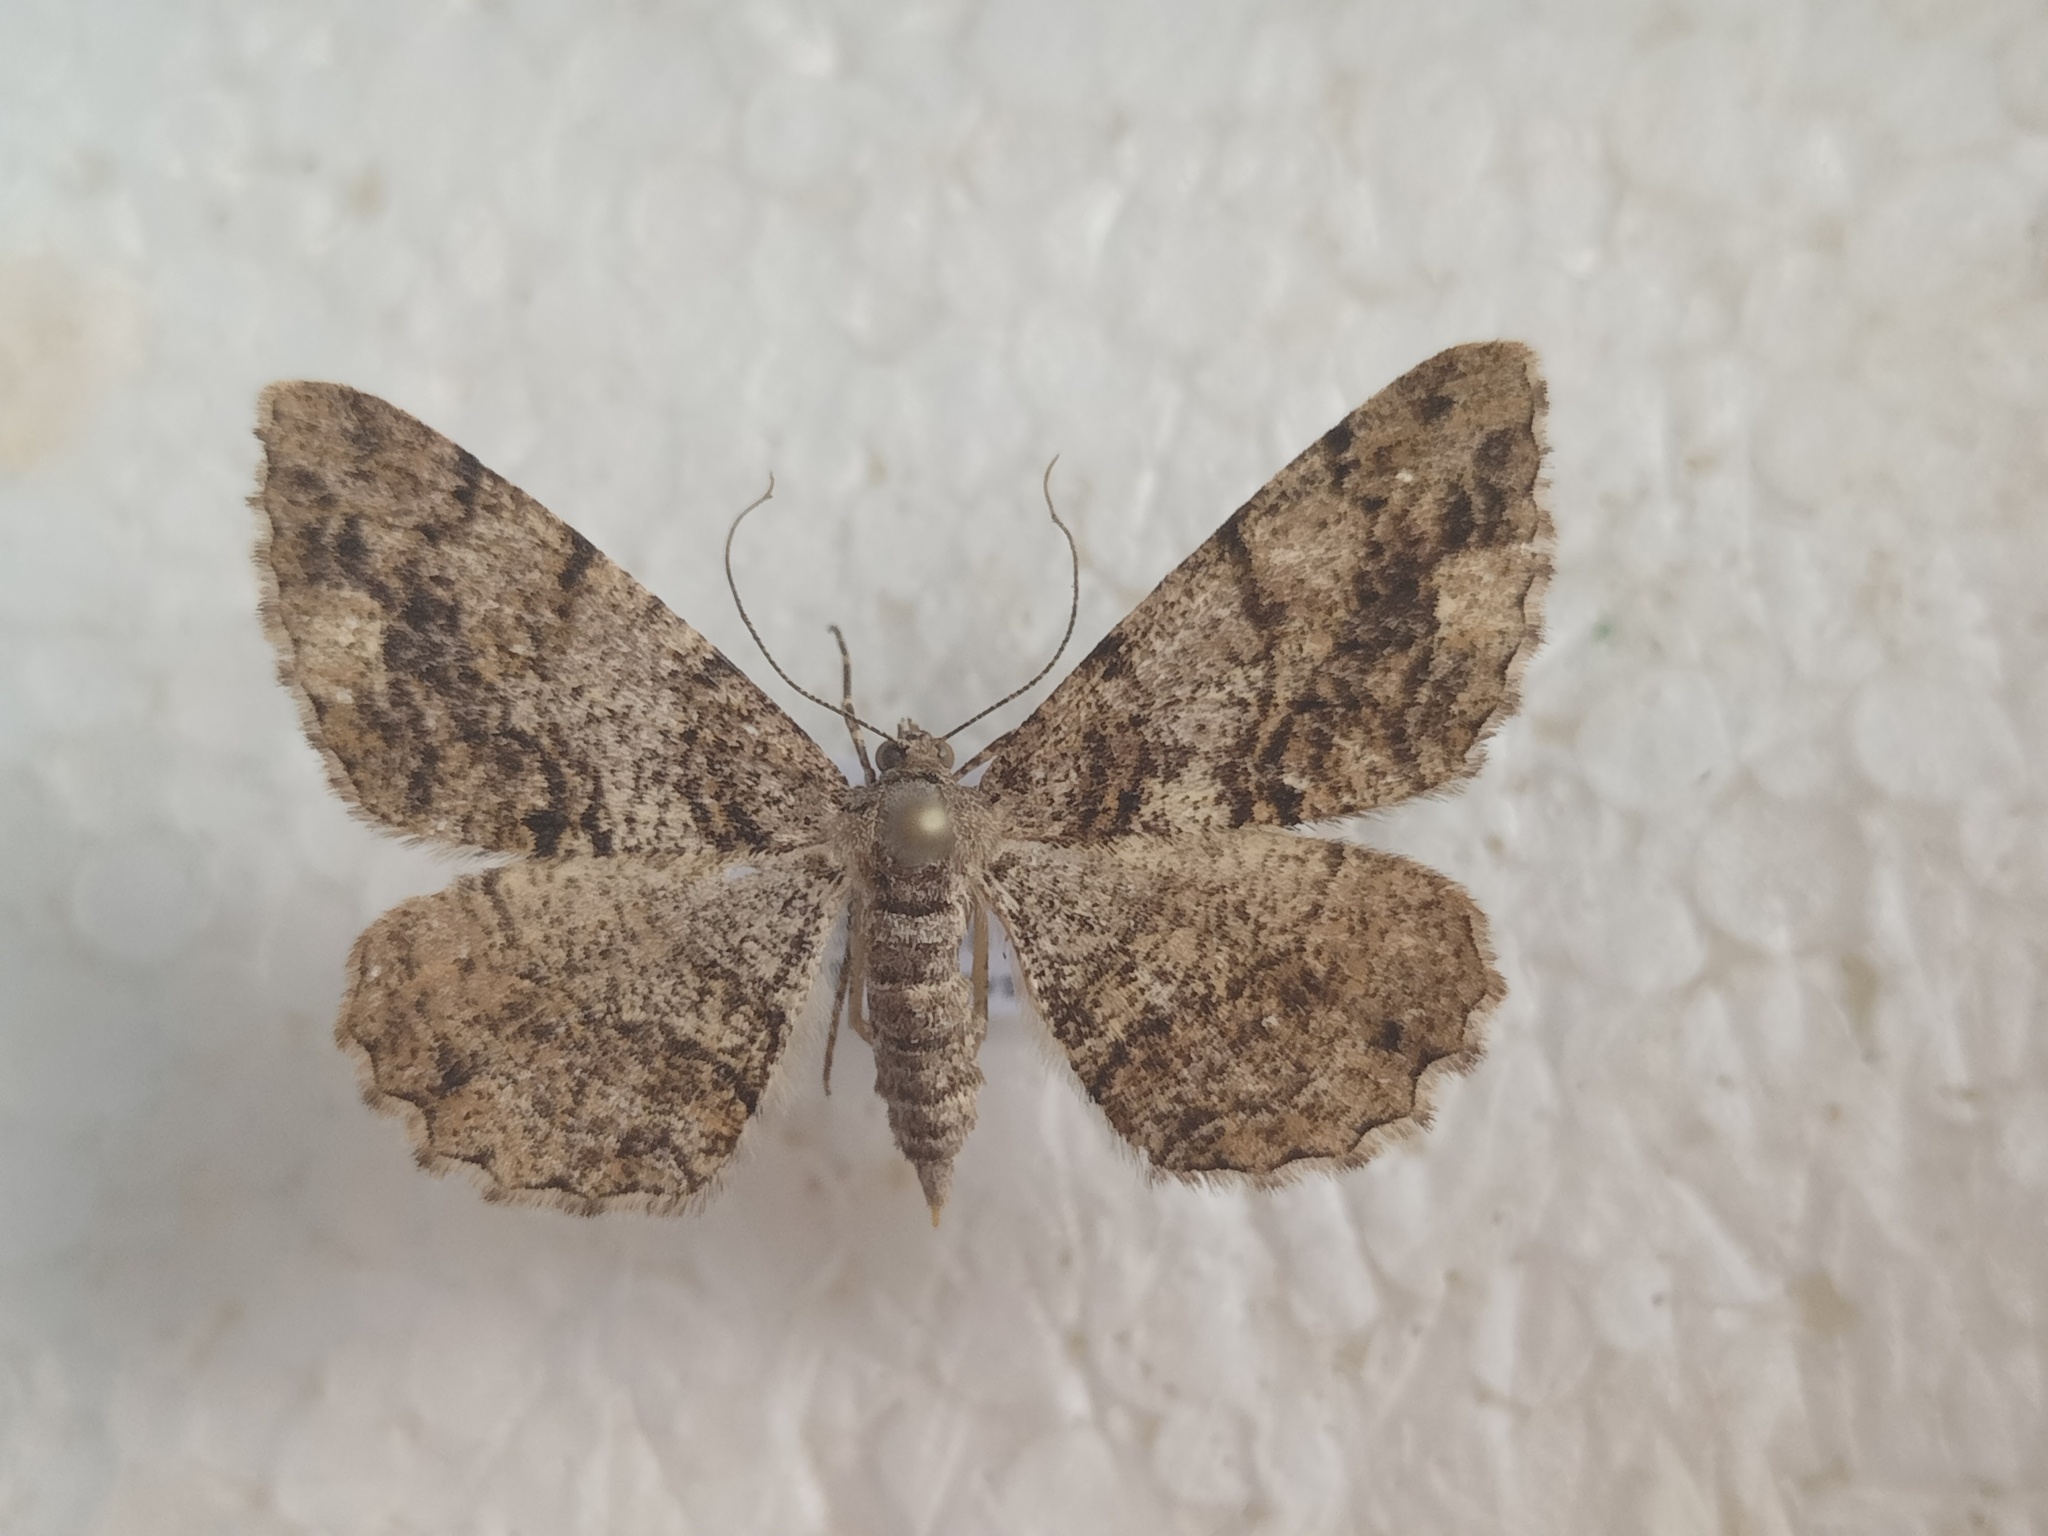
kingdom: Animalia
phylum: Arthropoda
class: Insecta
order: Lepidoptera
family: Geometridae
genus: Peribatodes
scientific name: Peribatodes secundaria
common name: Feathered beauty
